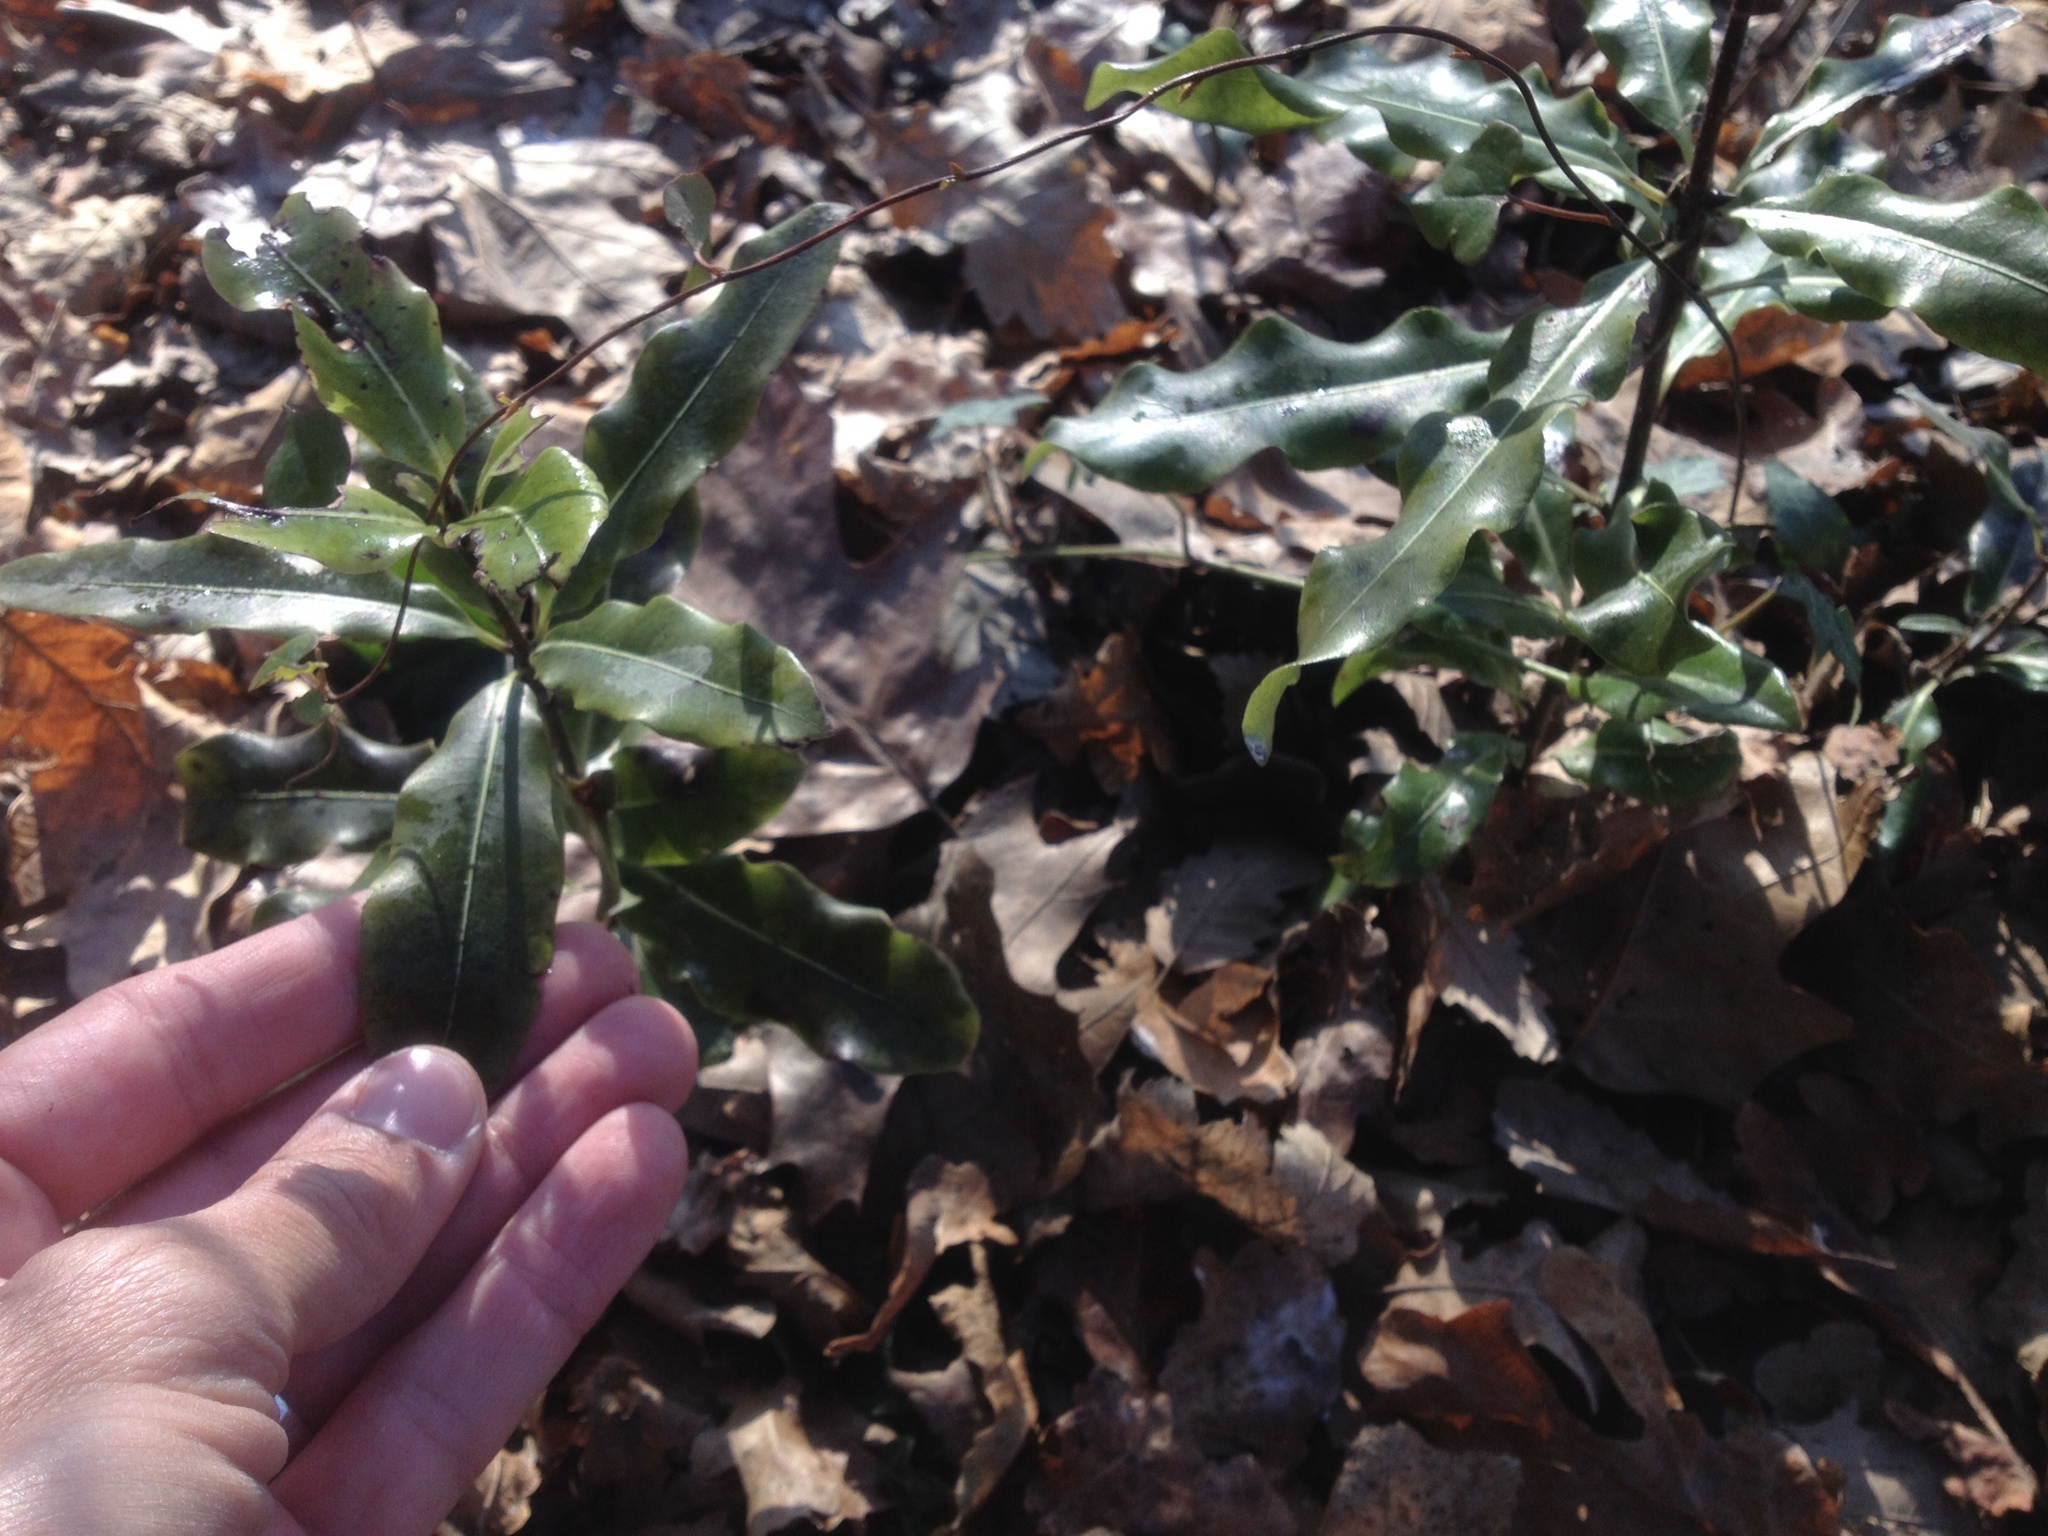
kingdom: Plantae
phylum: Tracheophyta
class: Magnoliopsida
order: Apiales
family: Pittosporaceae
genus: Pittosporum
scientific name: Pittosporum eugenioides
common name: Lemonwood
